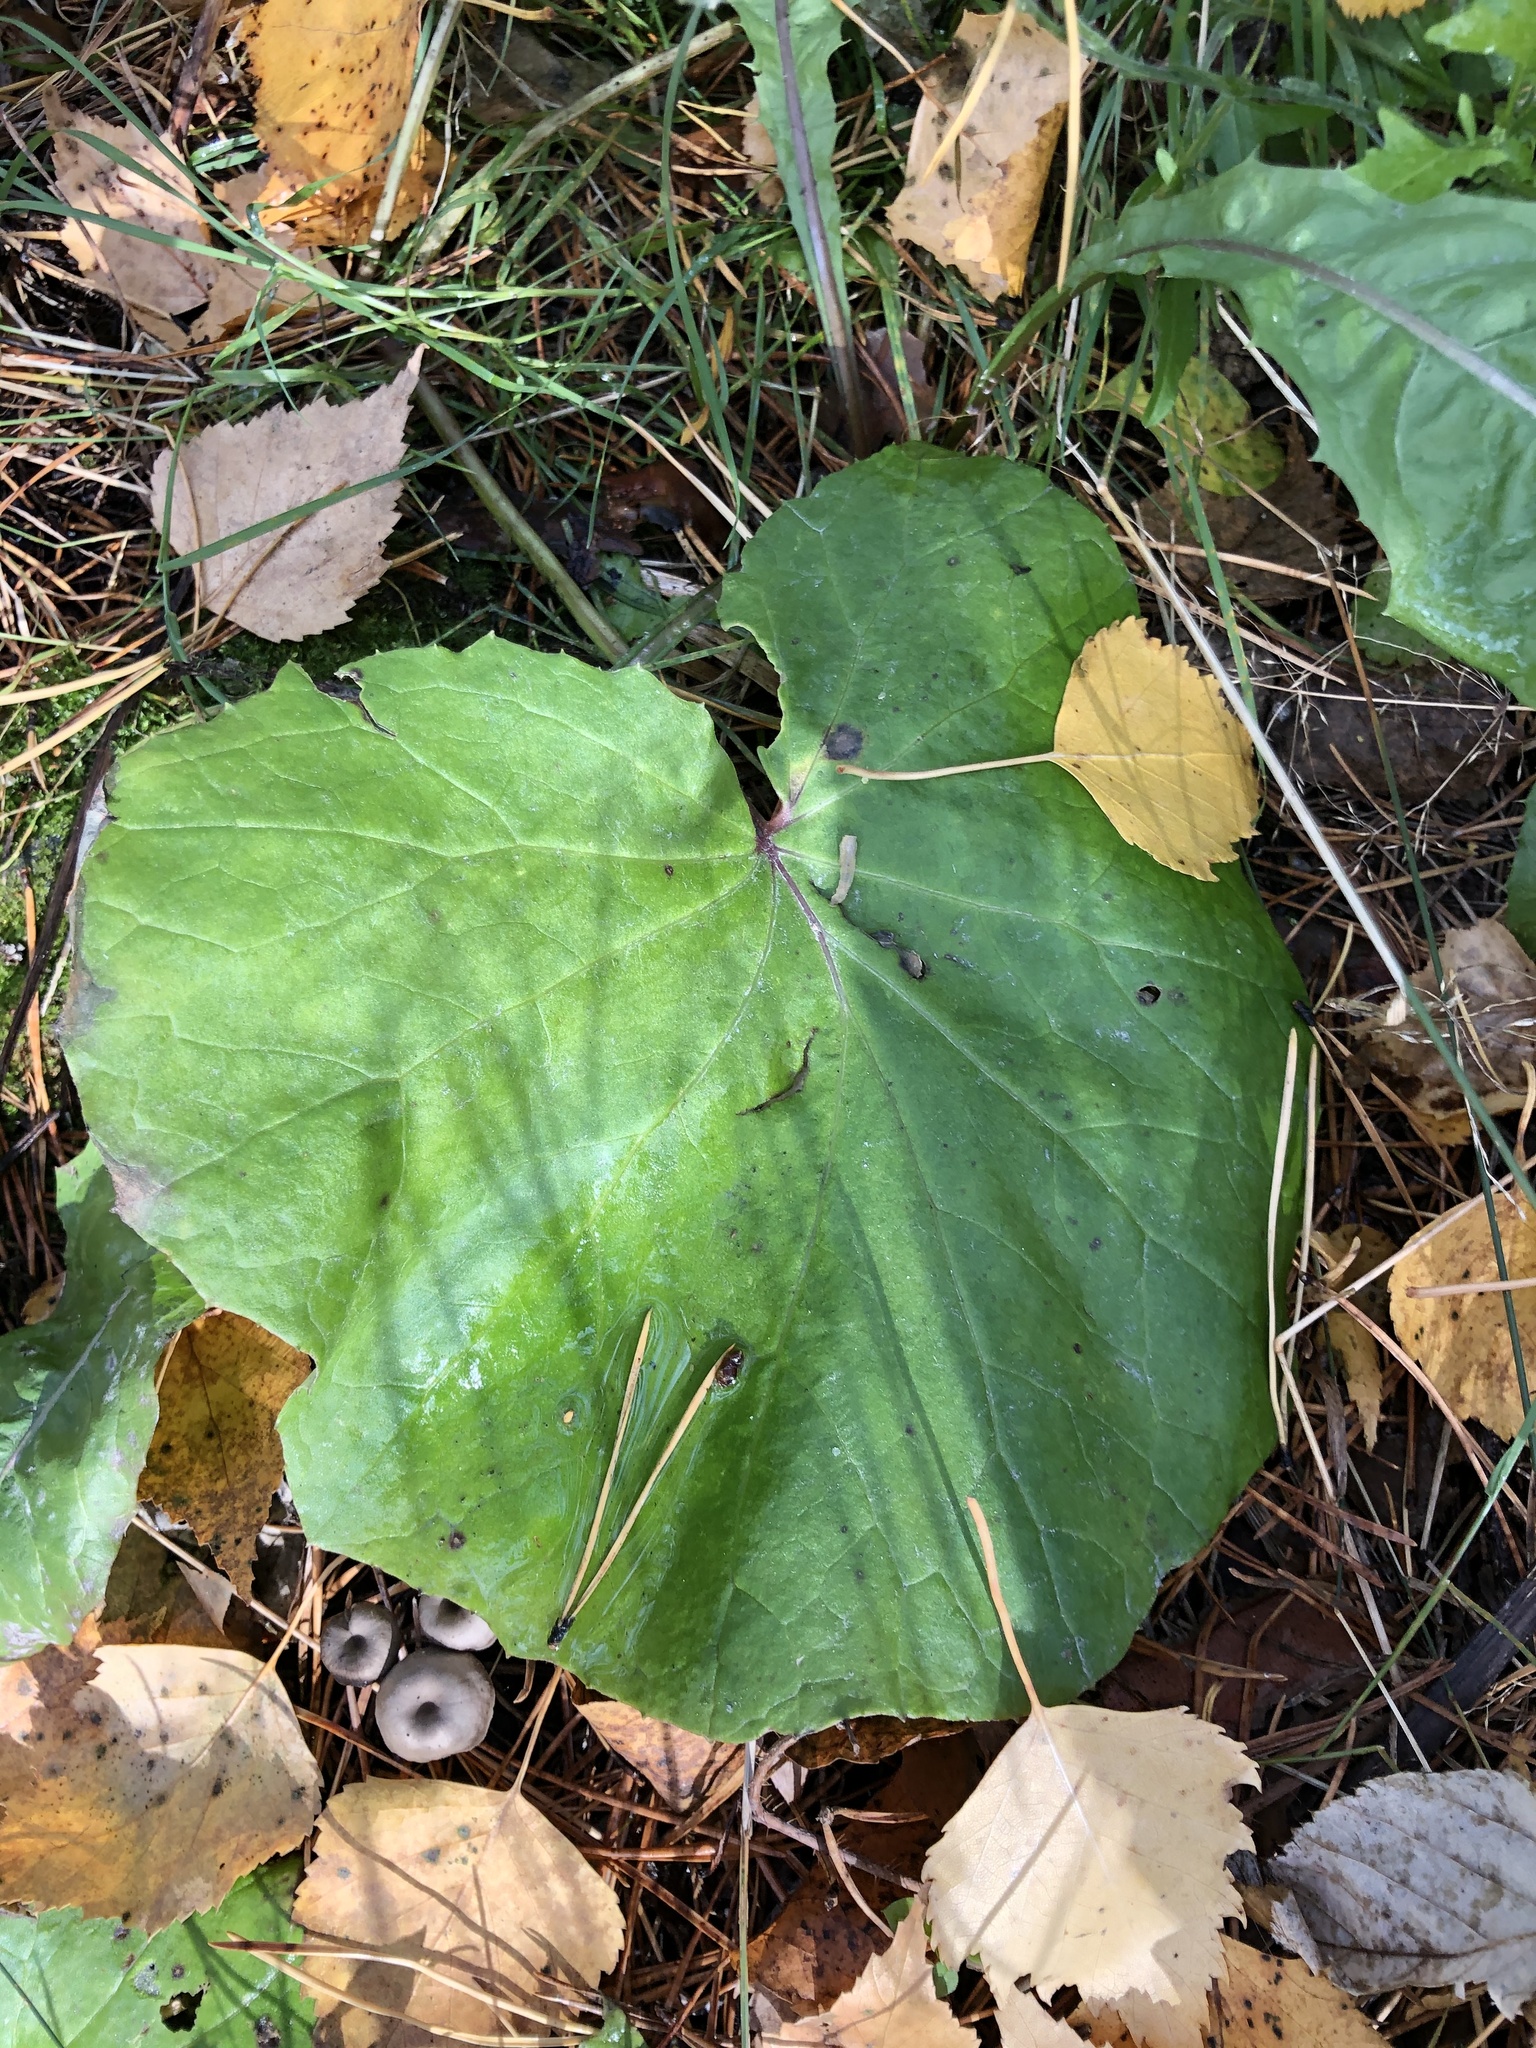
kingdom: Plantae
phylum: Tracheophyta
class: Magnoliopsida
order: Asterales
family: Asteraceae
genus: Tussilago
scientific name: Tussilago farfara
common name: Coltsfoot
